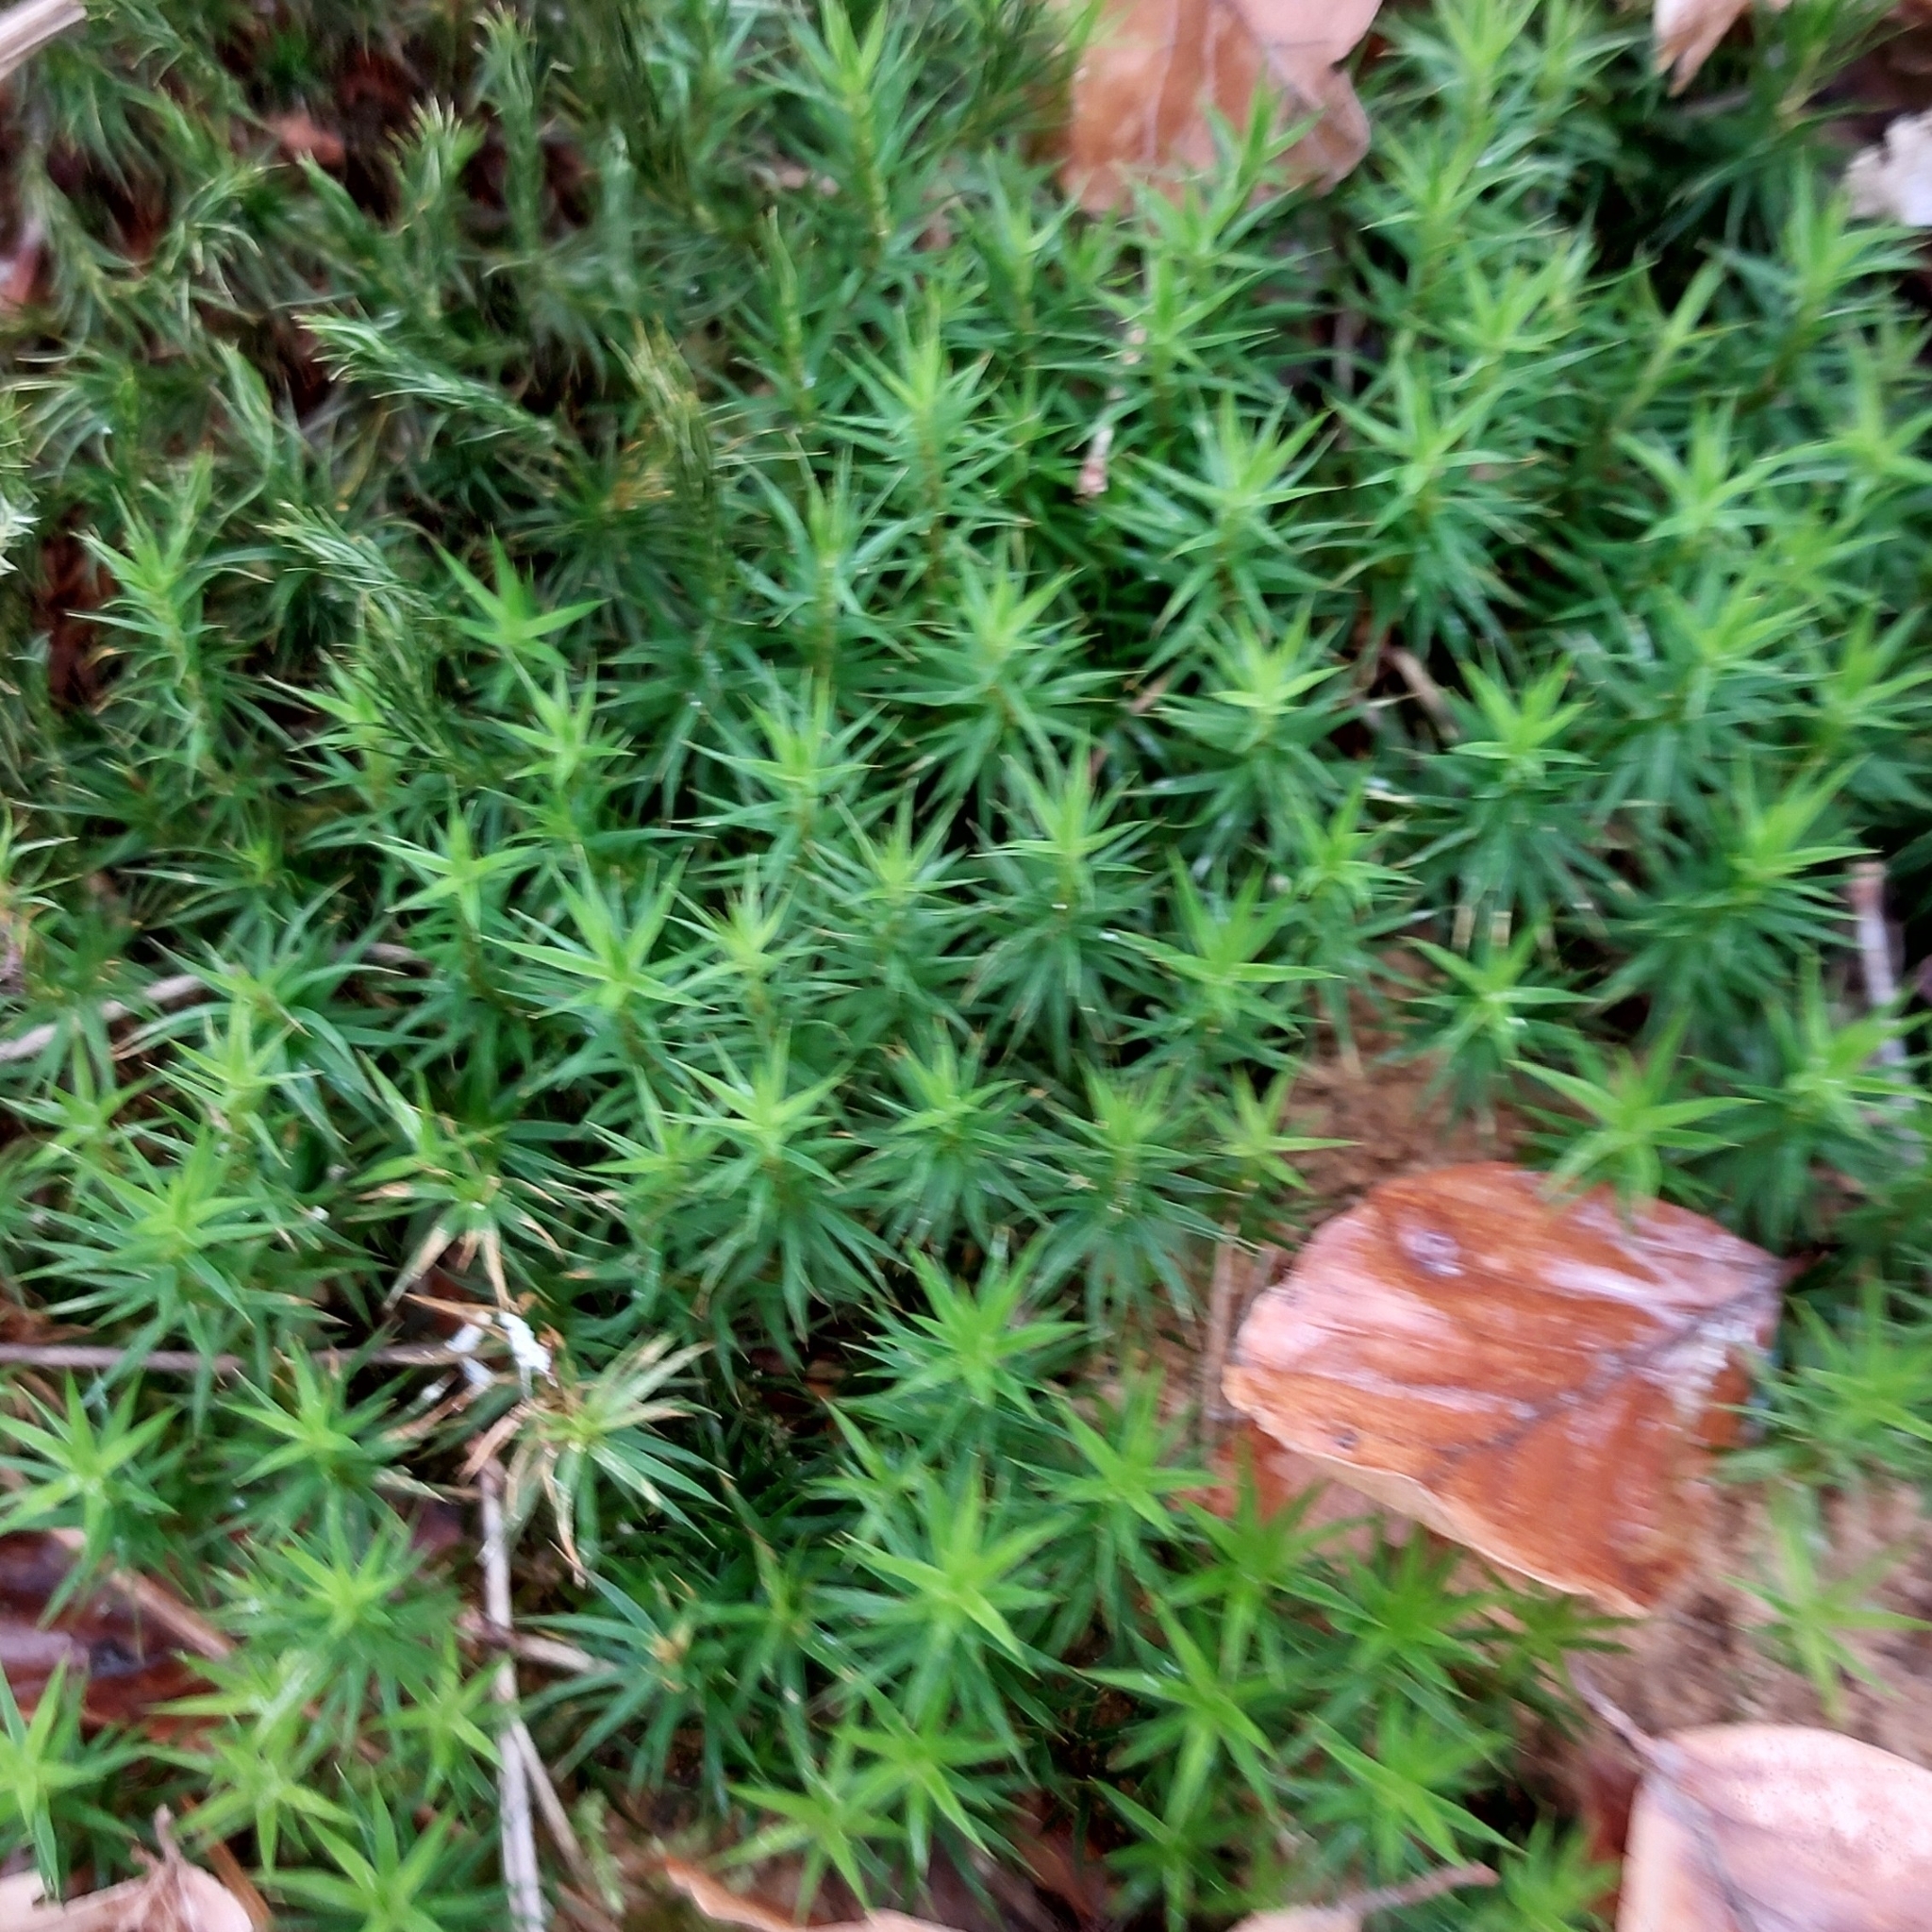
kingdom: Plantae
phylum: Bryophyta
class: Polytrichopsida
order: Polytrichales
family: Polytrichaceae
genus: Polytrichum
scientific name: Polytrichum formosum
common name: Bank haircap moss
